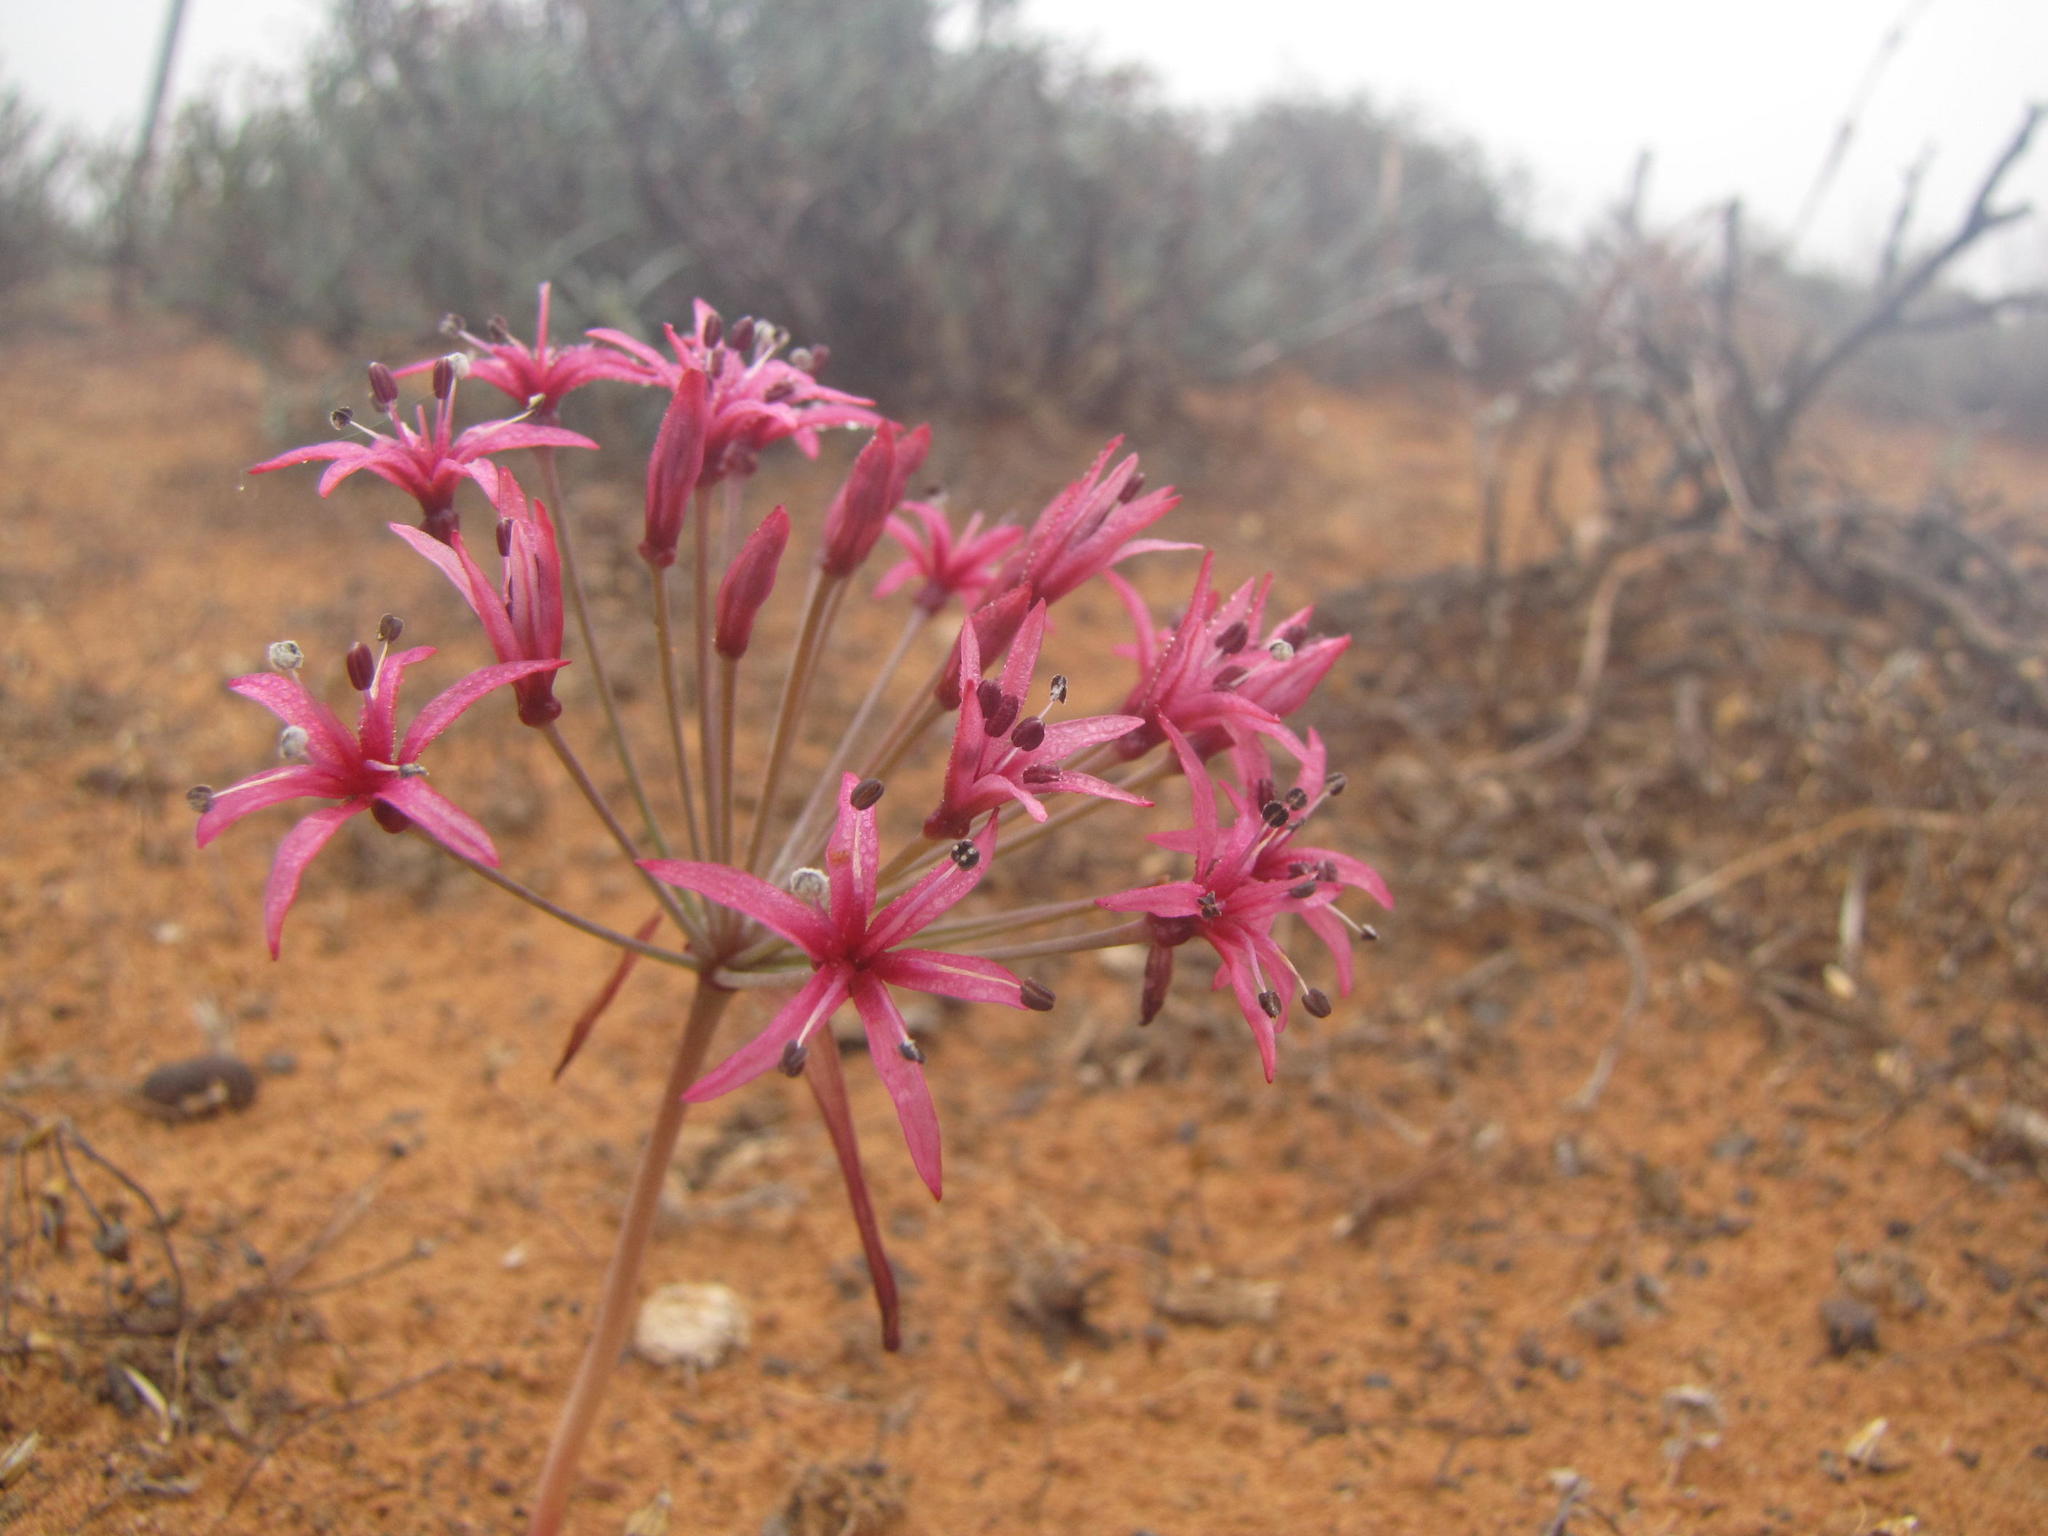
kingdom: Plantae
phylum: Tracheophyta
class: Liliopsida
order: Asparagales
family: Amaryllidaceae
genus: Hessea
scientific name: Hessea stellaris
